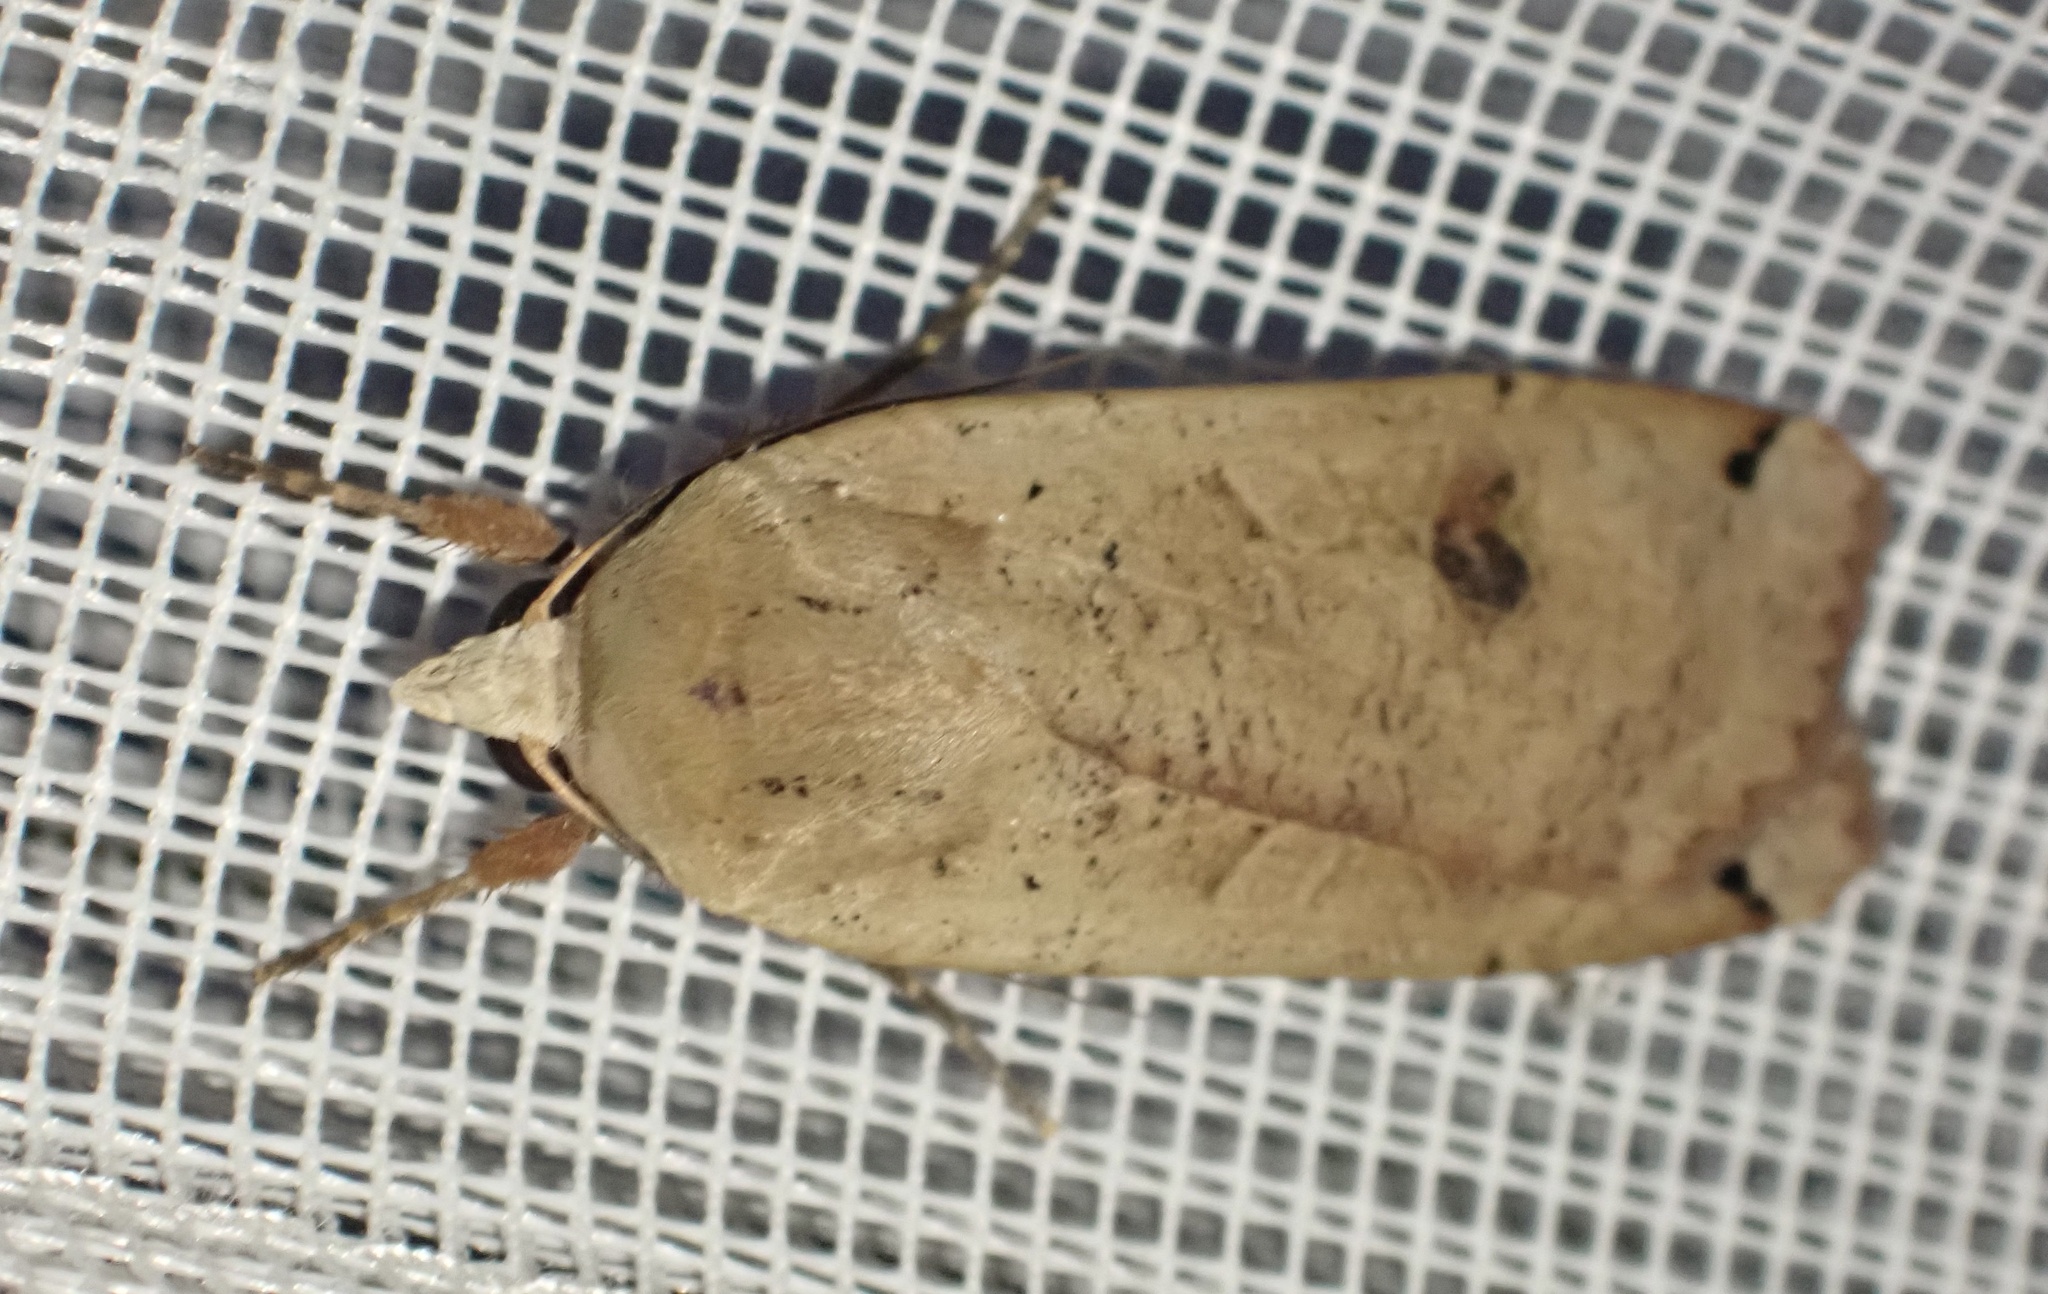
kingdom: Animalia
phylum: Arthropoda
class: Insecta
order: Lepidoptera
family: Noctuidae
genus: Noctua
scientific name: Noctua pronuba
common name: Large yellow underwing
